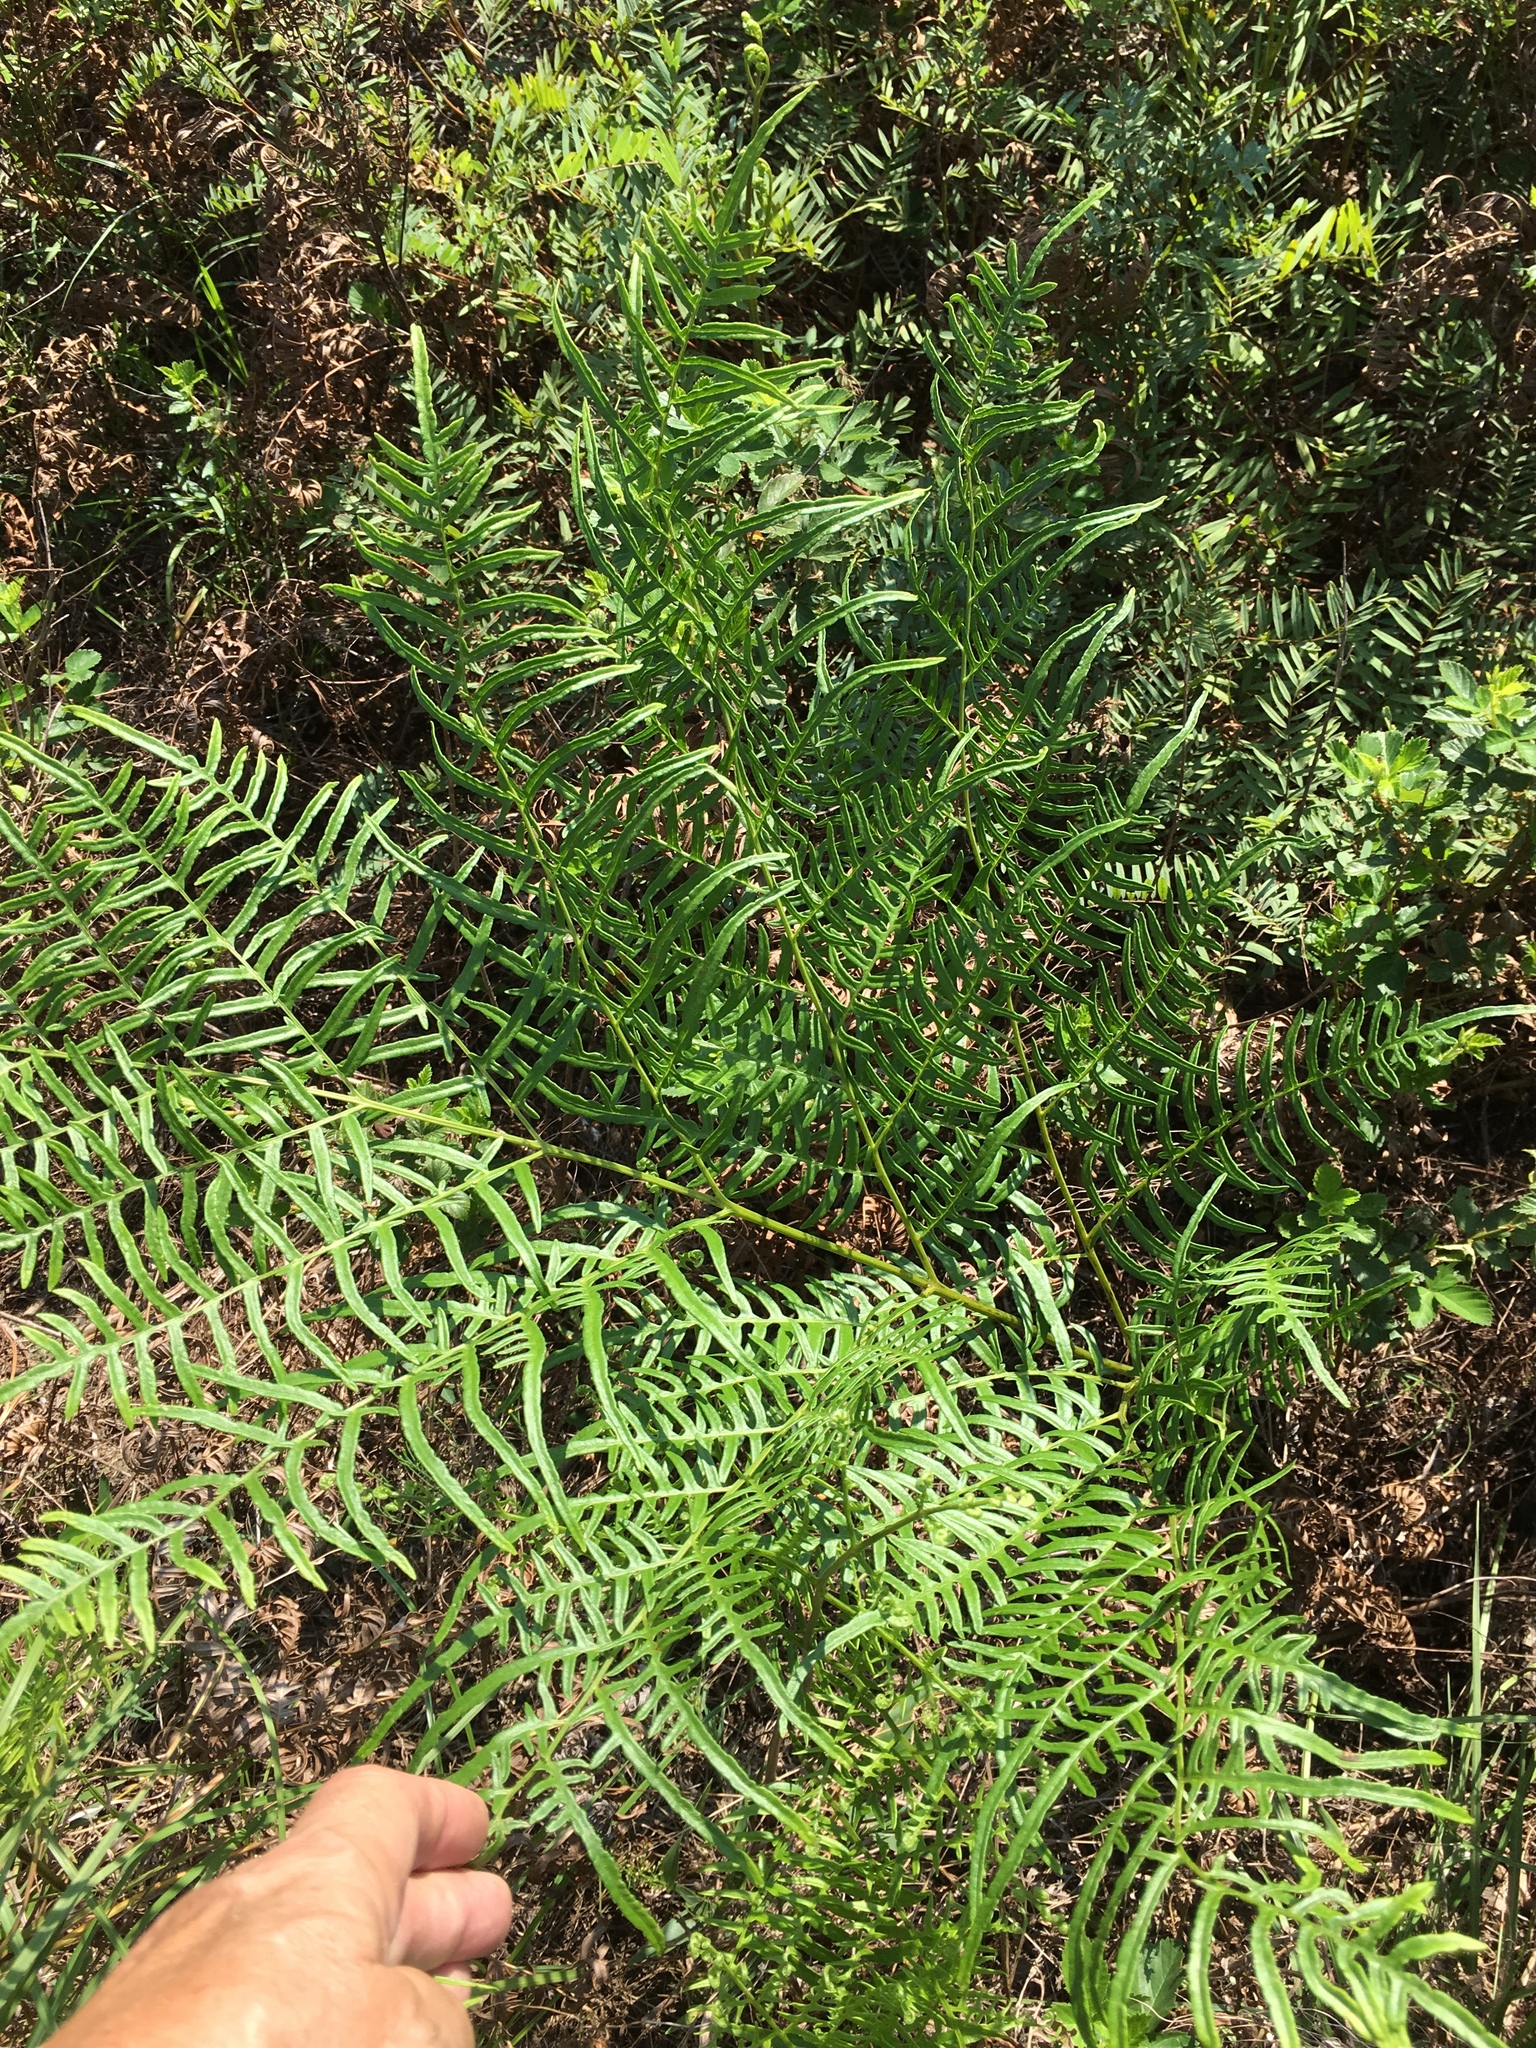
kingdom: Plantae
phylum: Tracheophyta
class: Polypodiopsida
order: Polypodiales
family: Dennstaedtiaceae
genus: Pteridium
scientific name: Pteridium
